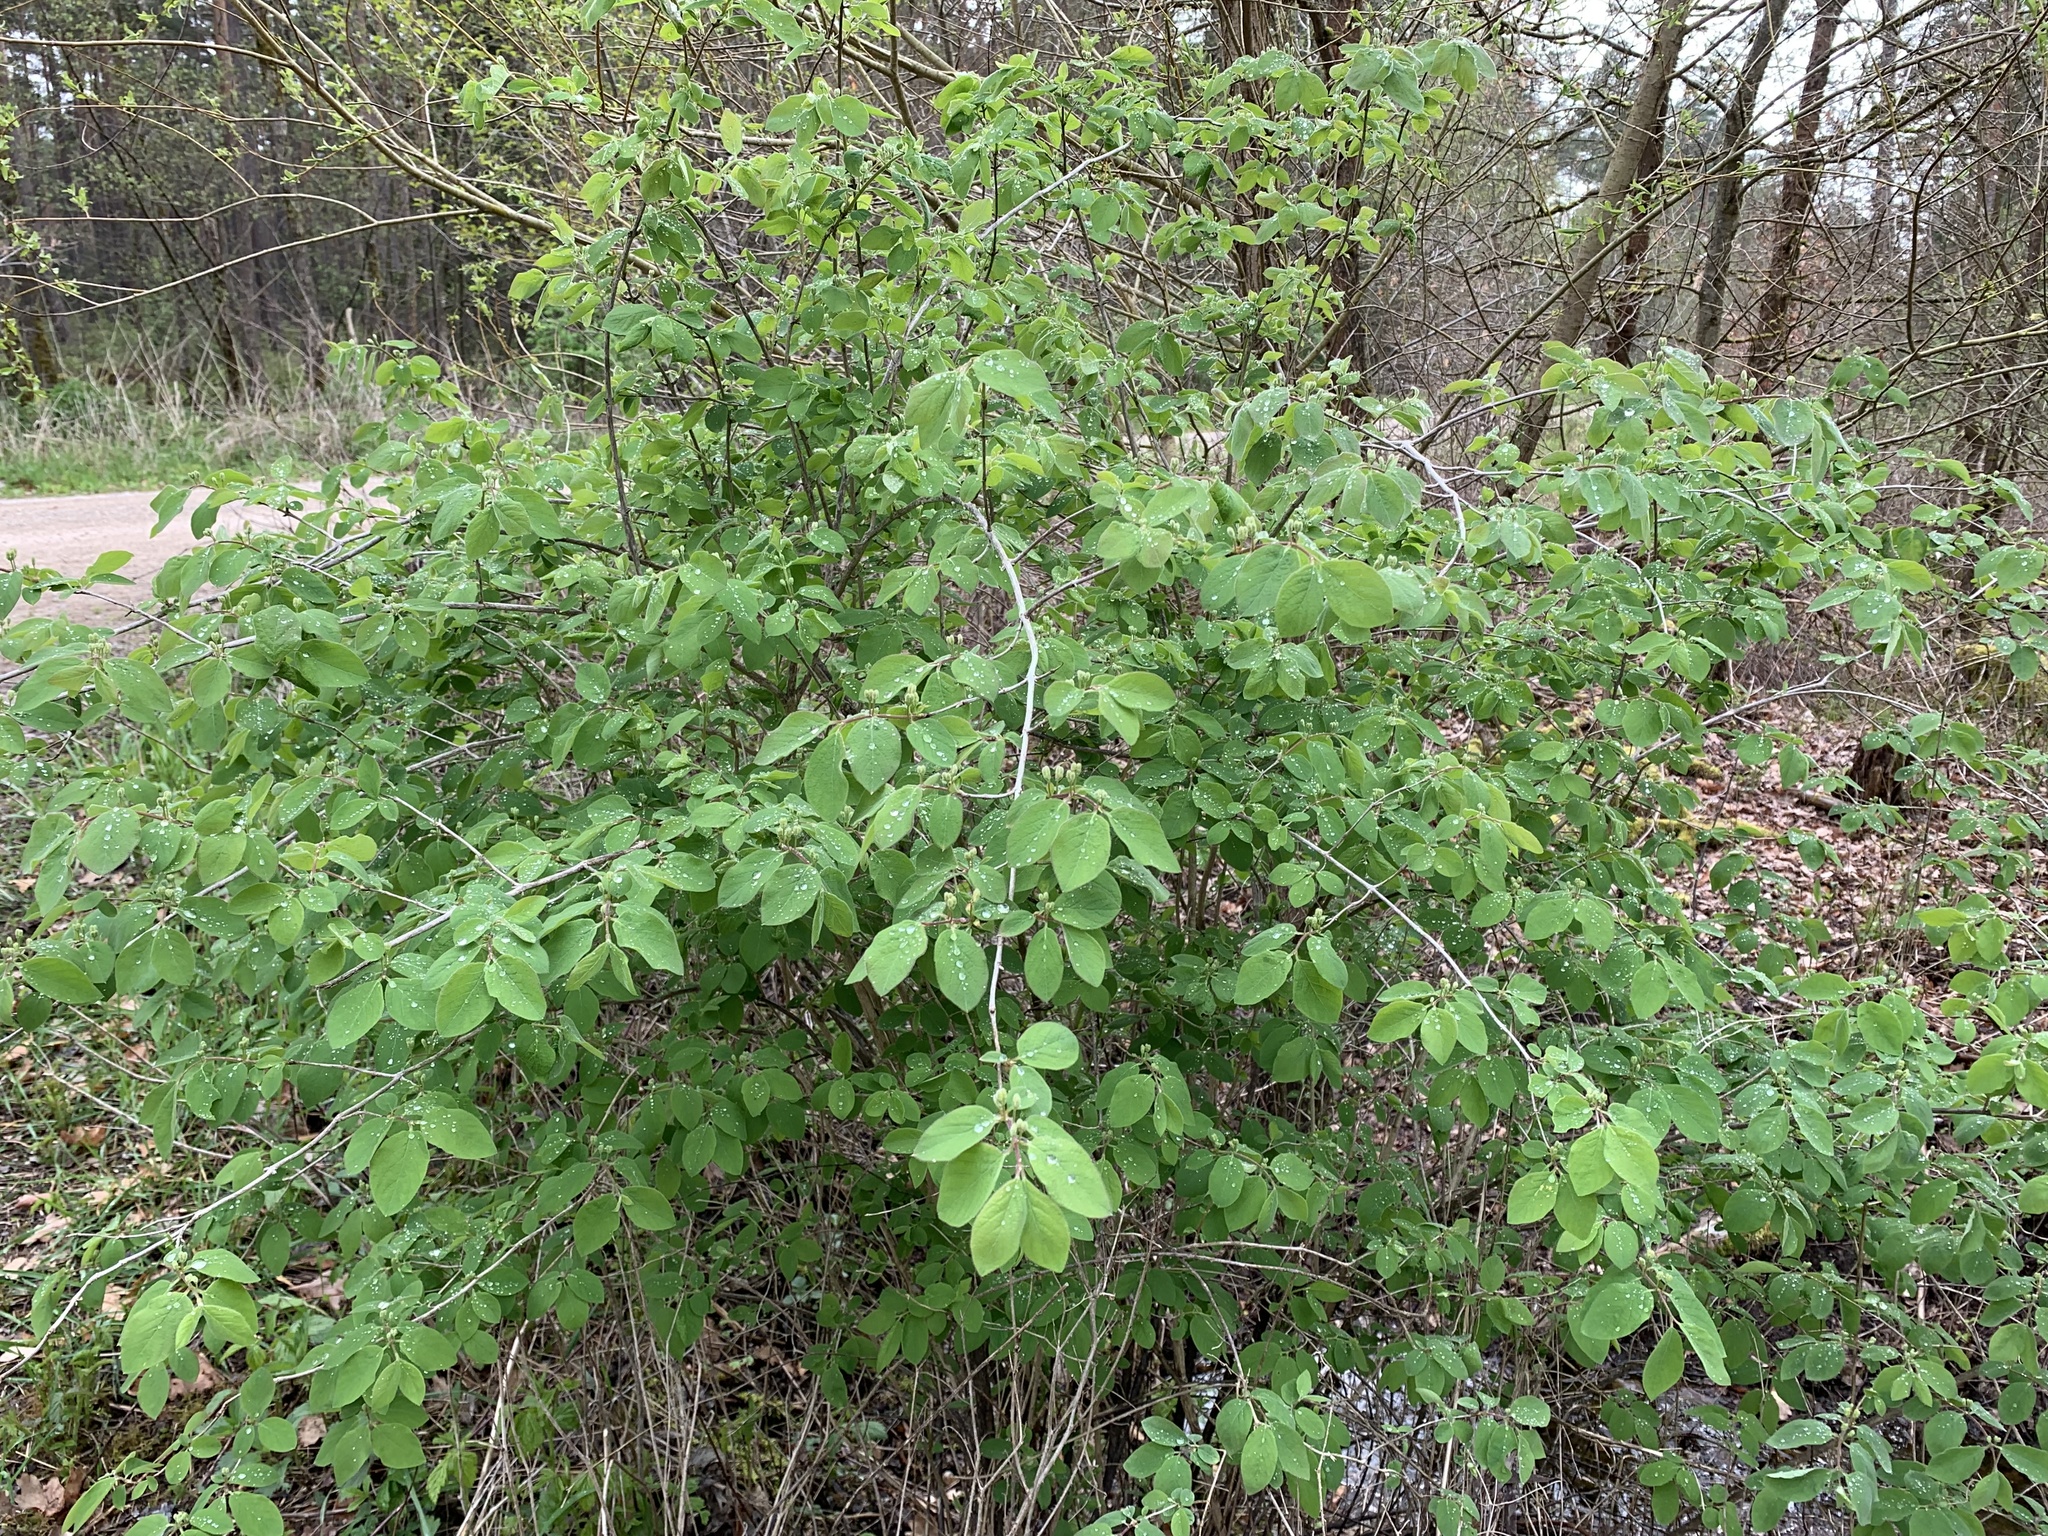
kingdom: Plantae
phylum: Tracheophyta
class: Magnoliopsida
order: Dipsacales
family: Caprifoliaceae
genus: Lonicera
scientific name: Lonicera xylosteum
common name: Fly honeysuckle
